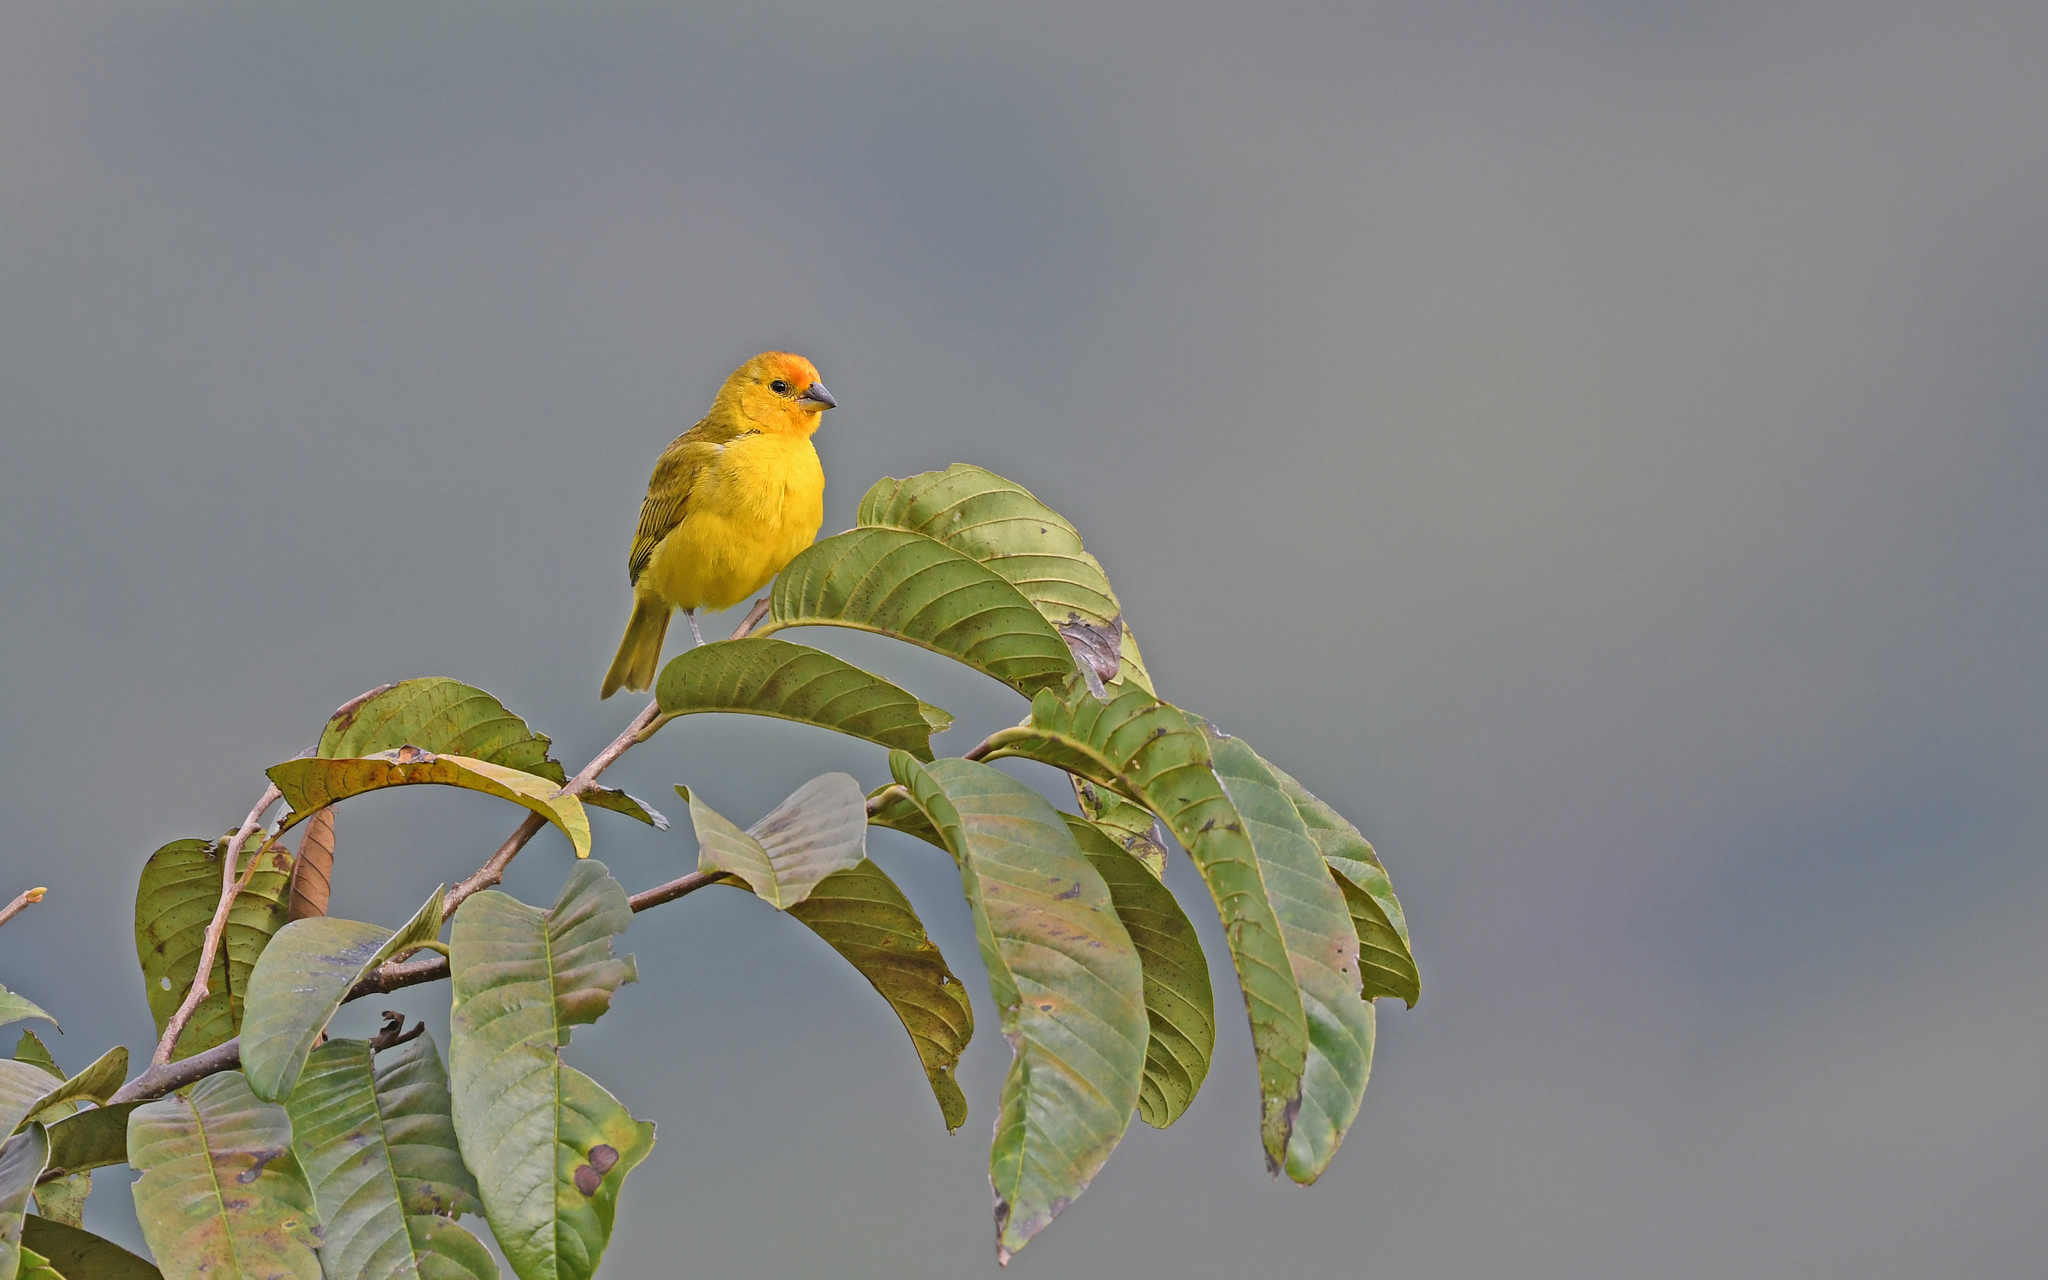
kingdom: Animalia
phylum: Chordata
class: Aves
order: Passeriformes
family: Thraupidae
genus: Sicalis
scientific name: Sicalis flaveola
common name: Saffron finch
